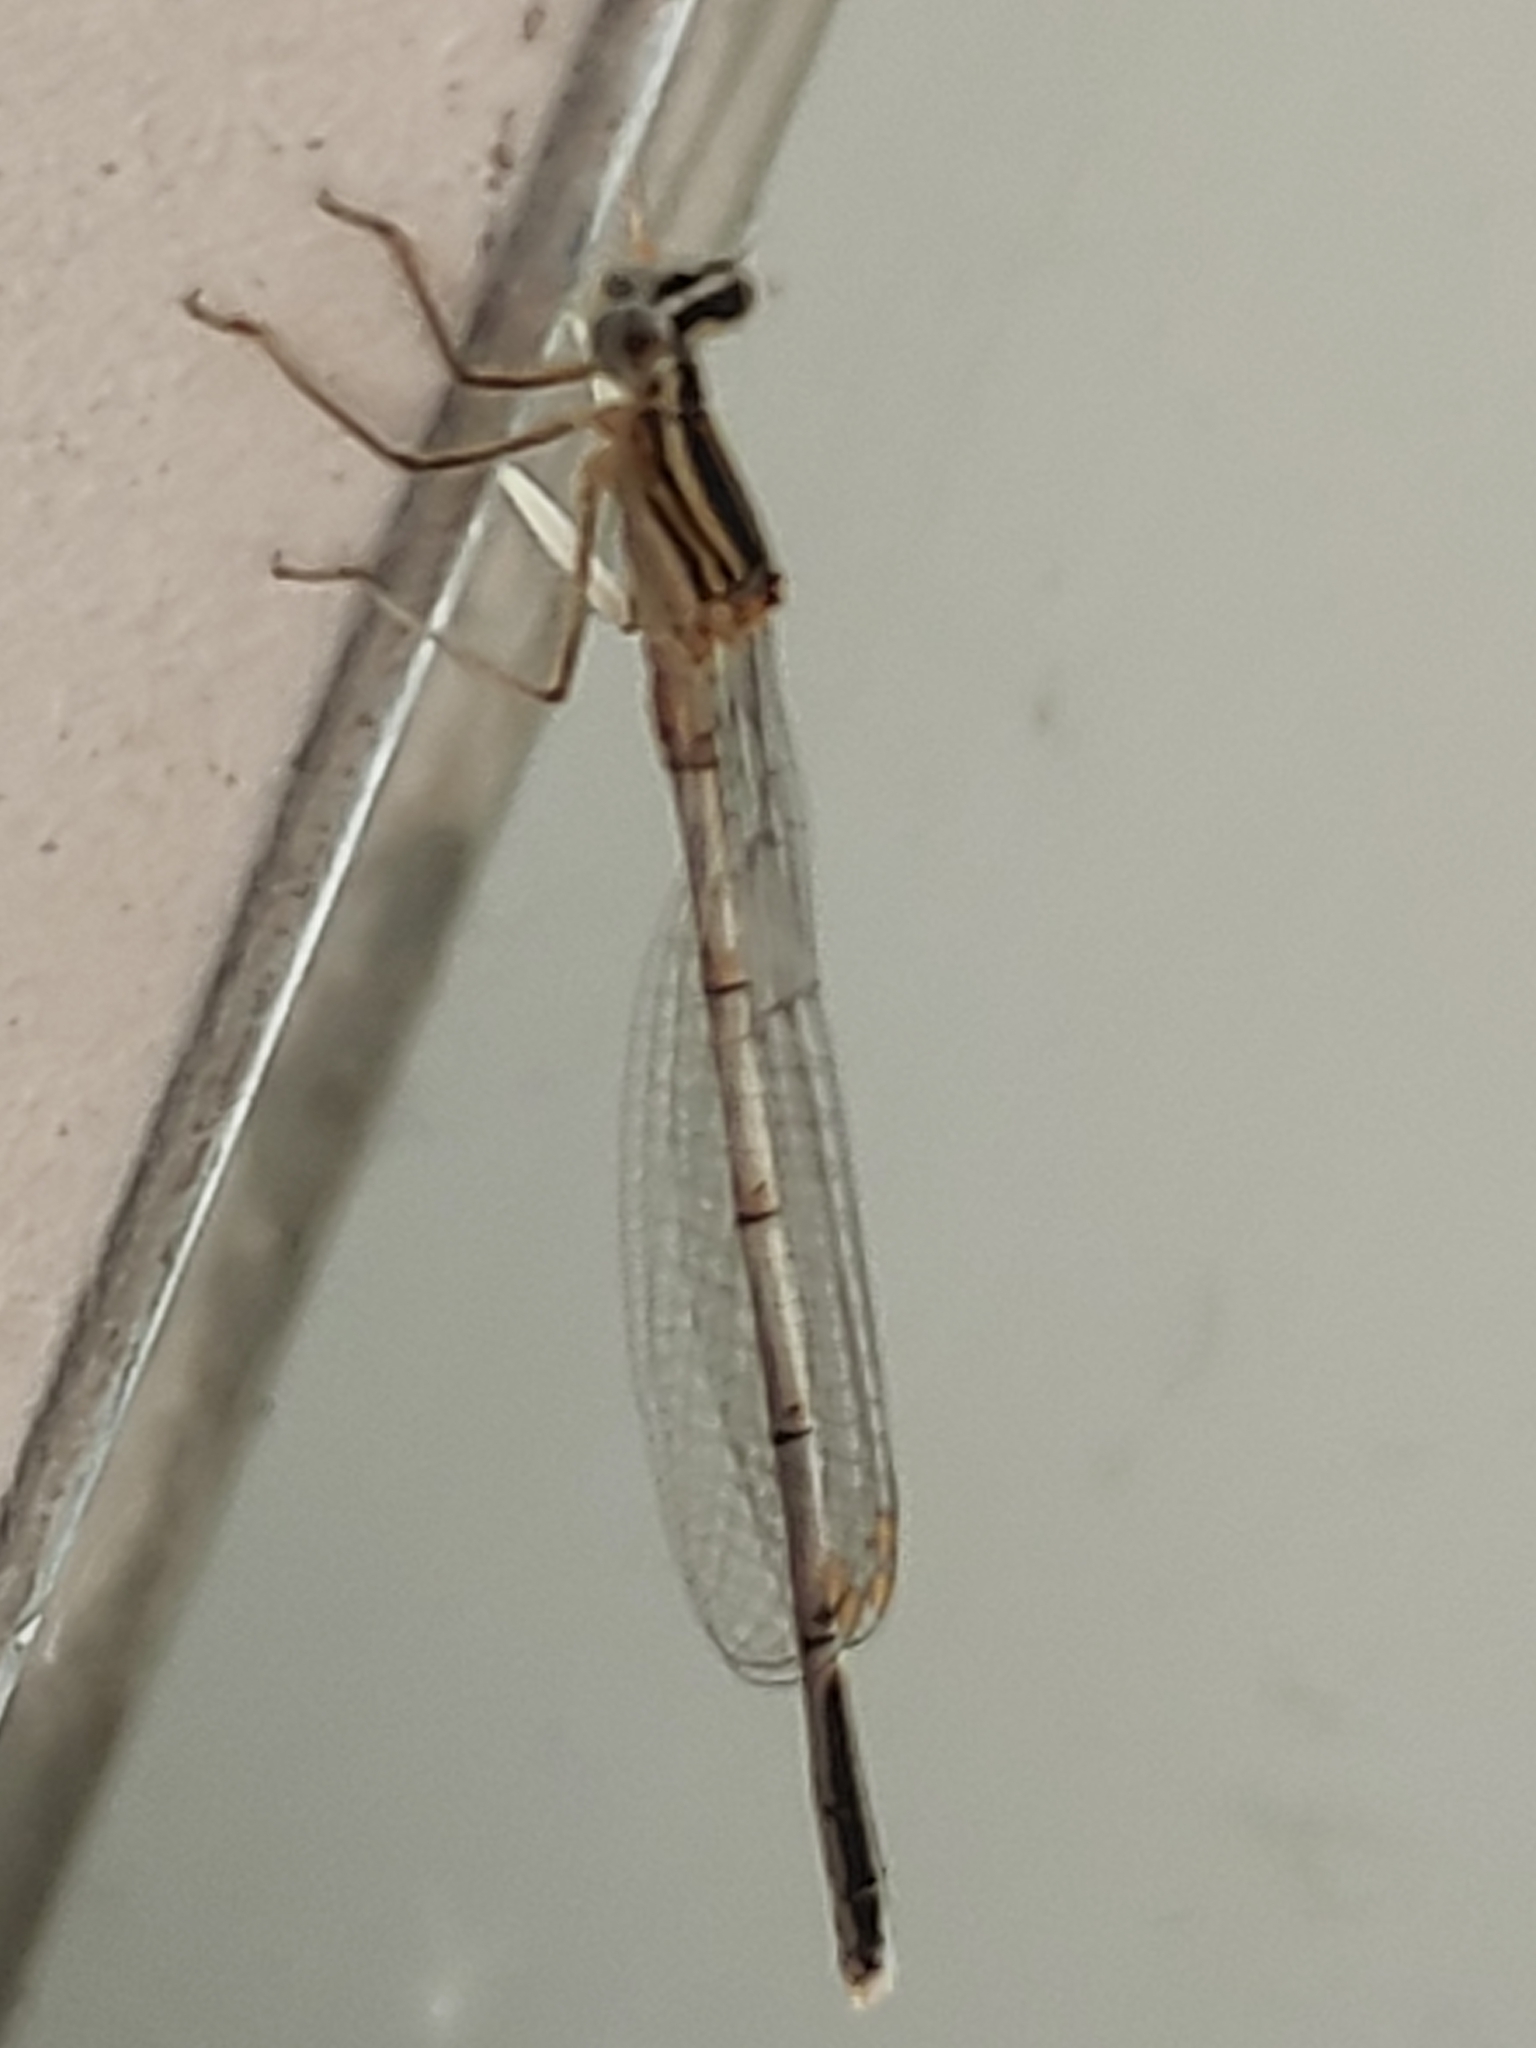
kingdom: Animalia
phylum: Arthropoda
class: Insecta
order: Odonata
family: Platycnemididae
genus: Platycnemis
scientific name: Platycnemis pennipes
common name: White-legged damselfly
